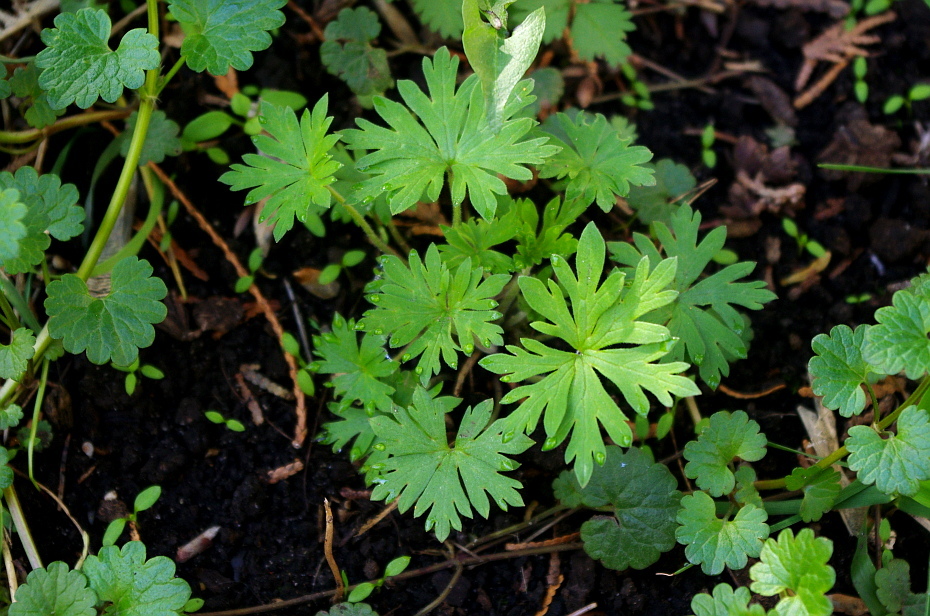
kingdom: Plantae
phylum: Tracheophyta
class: Magnoliopsida
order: Geraniales
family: Geraniaceae
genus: Geranium
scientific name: Geranium sibiricum
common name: Siberian crane's-bill
